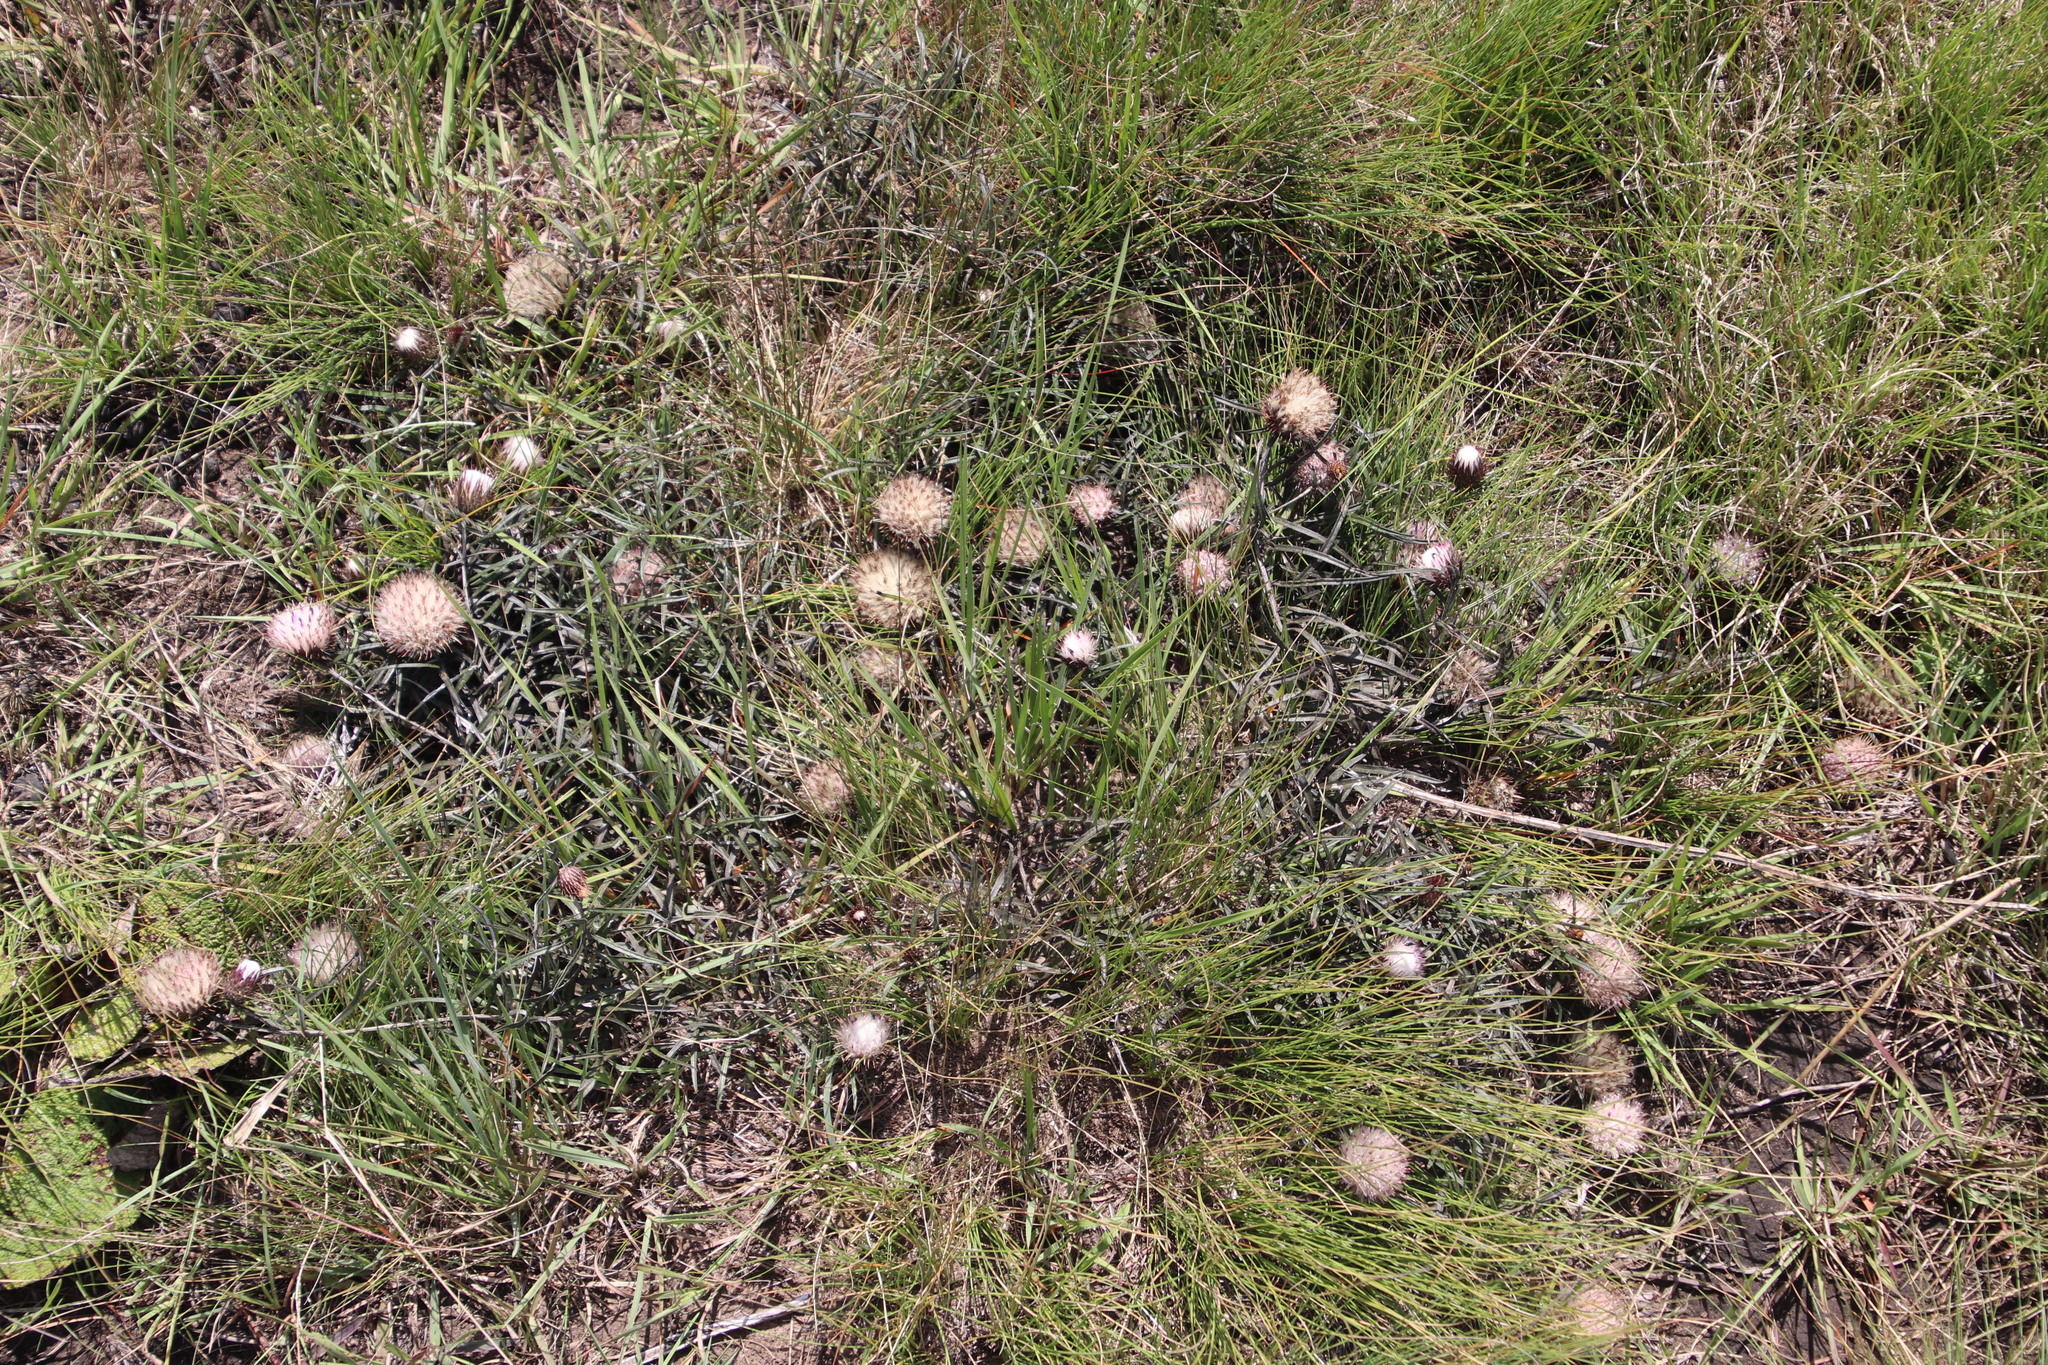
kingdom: Plantae
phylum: Tracheophyta
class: Magnoliopsida
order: Asterales
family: Asteraceae
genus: Dicoma
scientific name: Dicoma anomala
